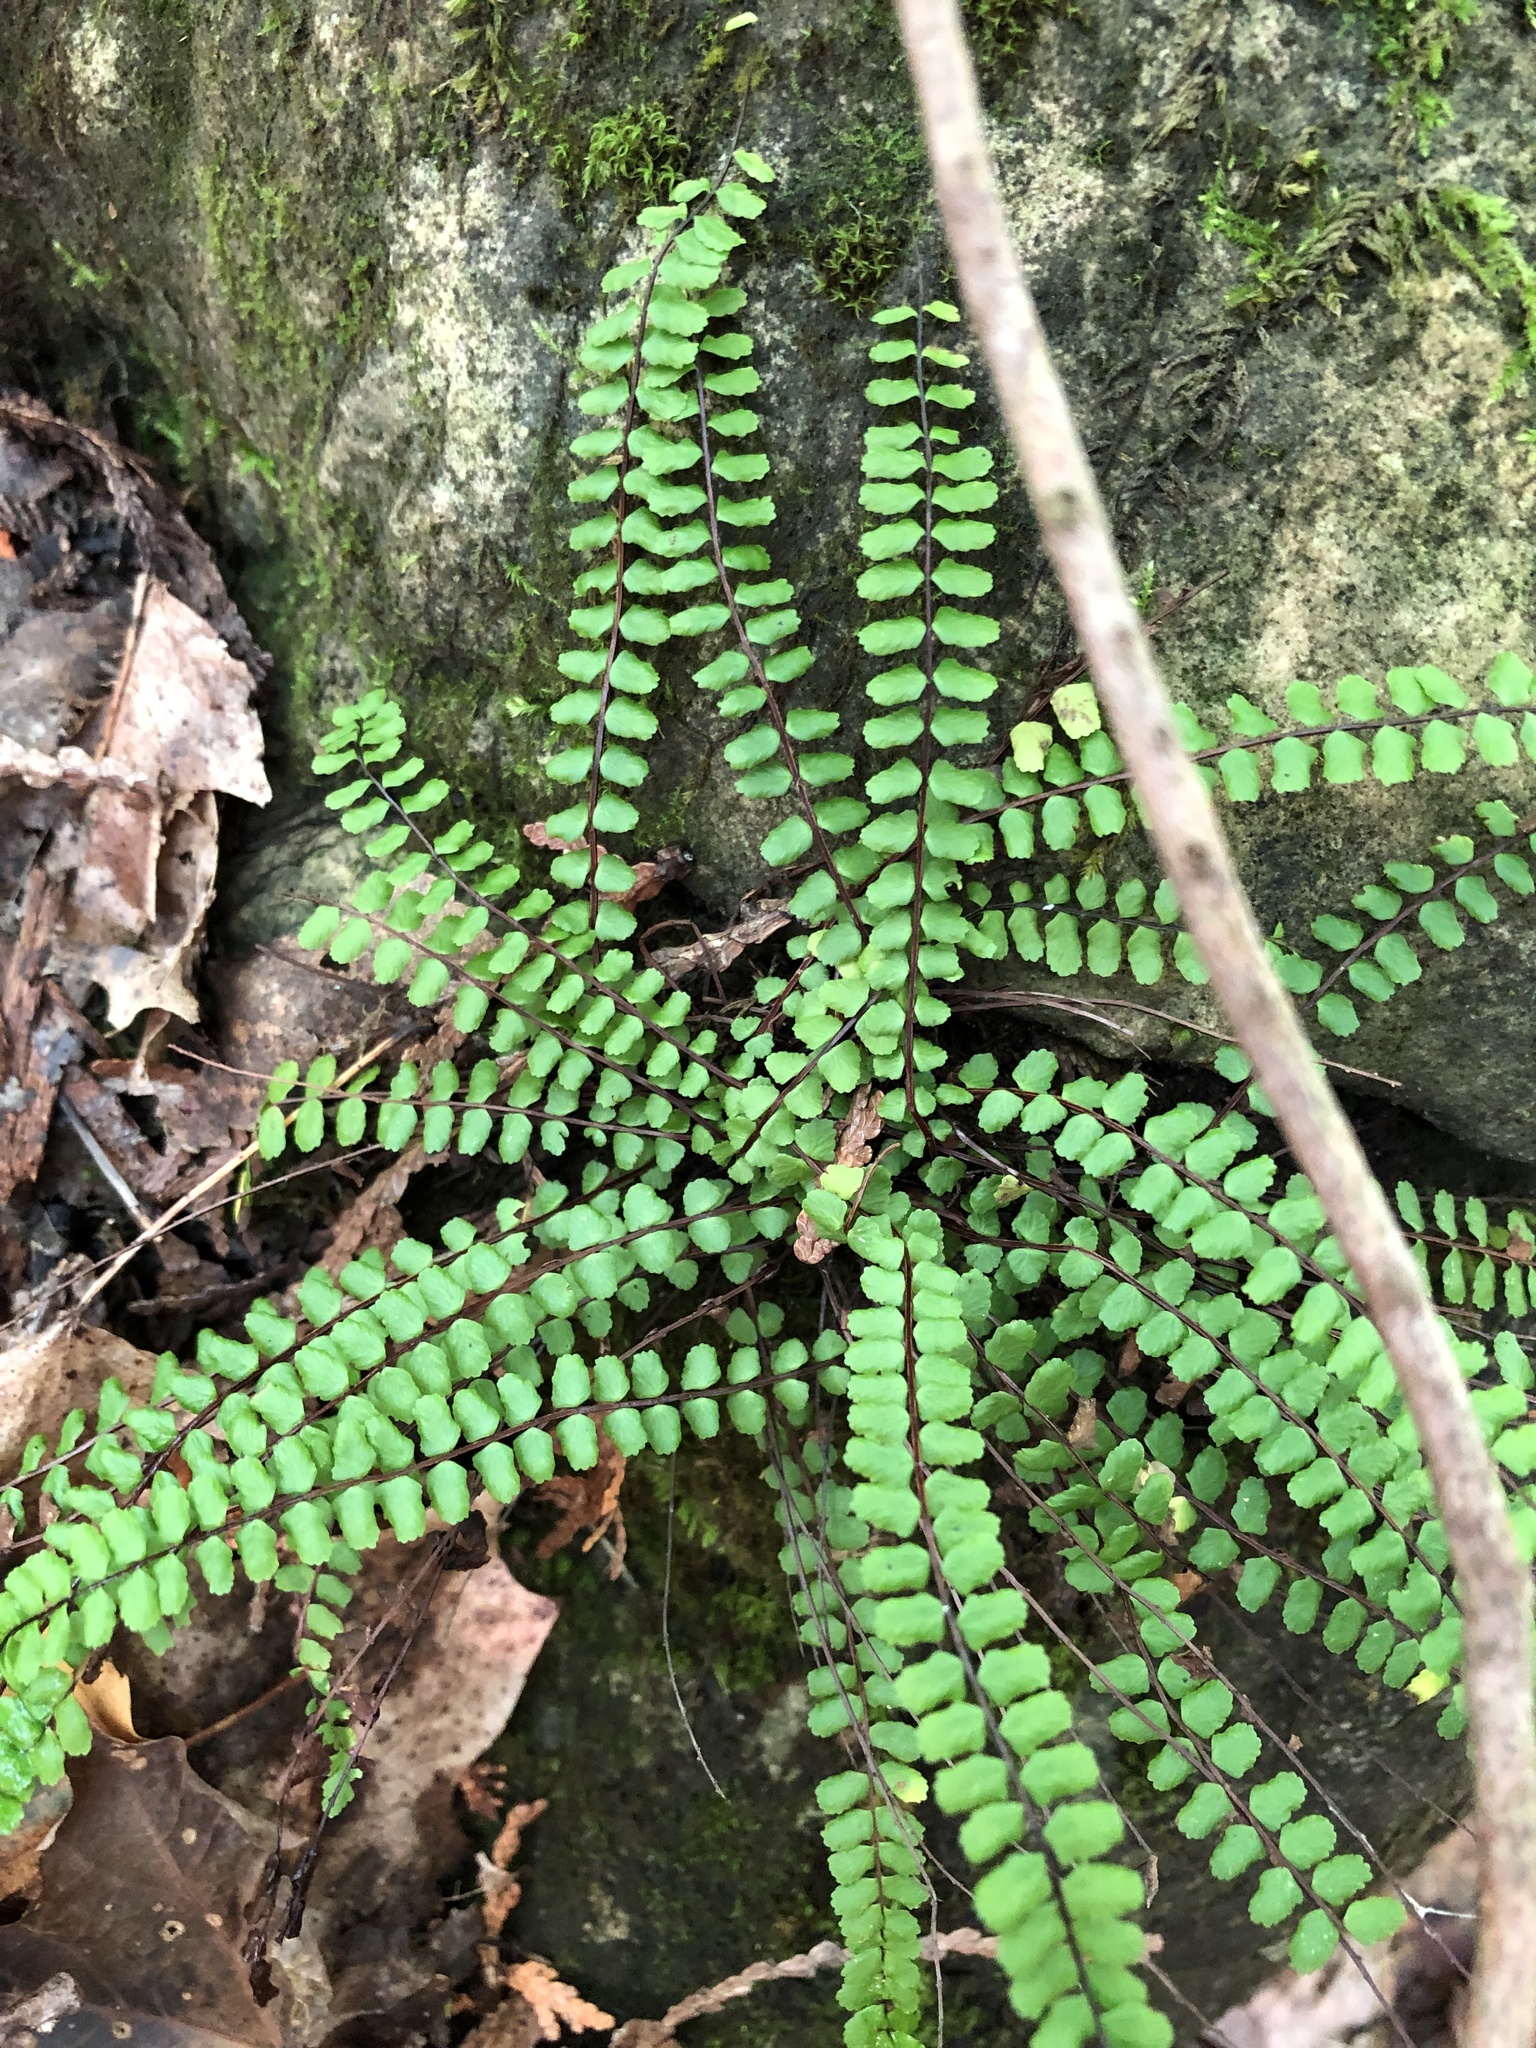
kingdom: Plantae
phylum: Tracheophyta
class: Polypodiopsida
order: Polypodiales
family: Aspleniaceae
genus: Asplenium
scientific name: Asplenium trichomanes
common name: Maidenhair spleenwort
